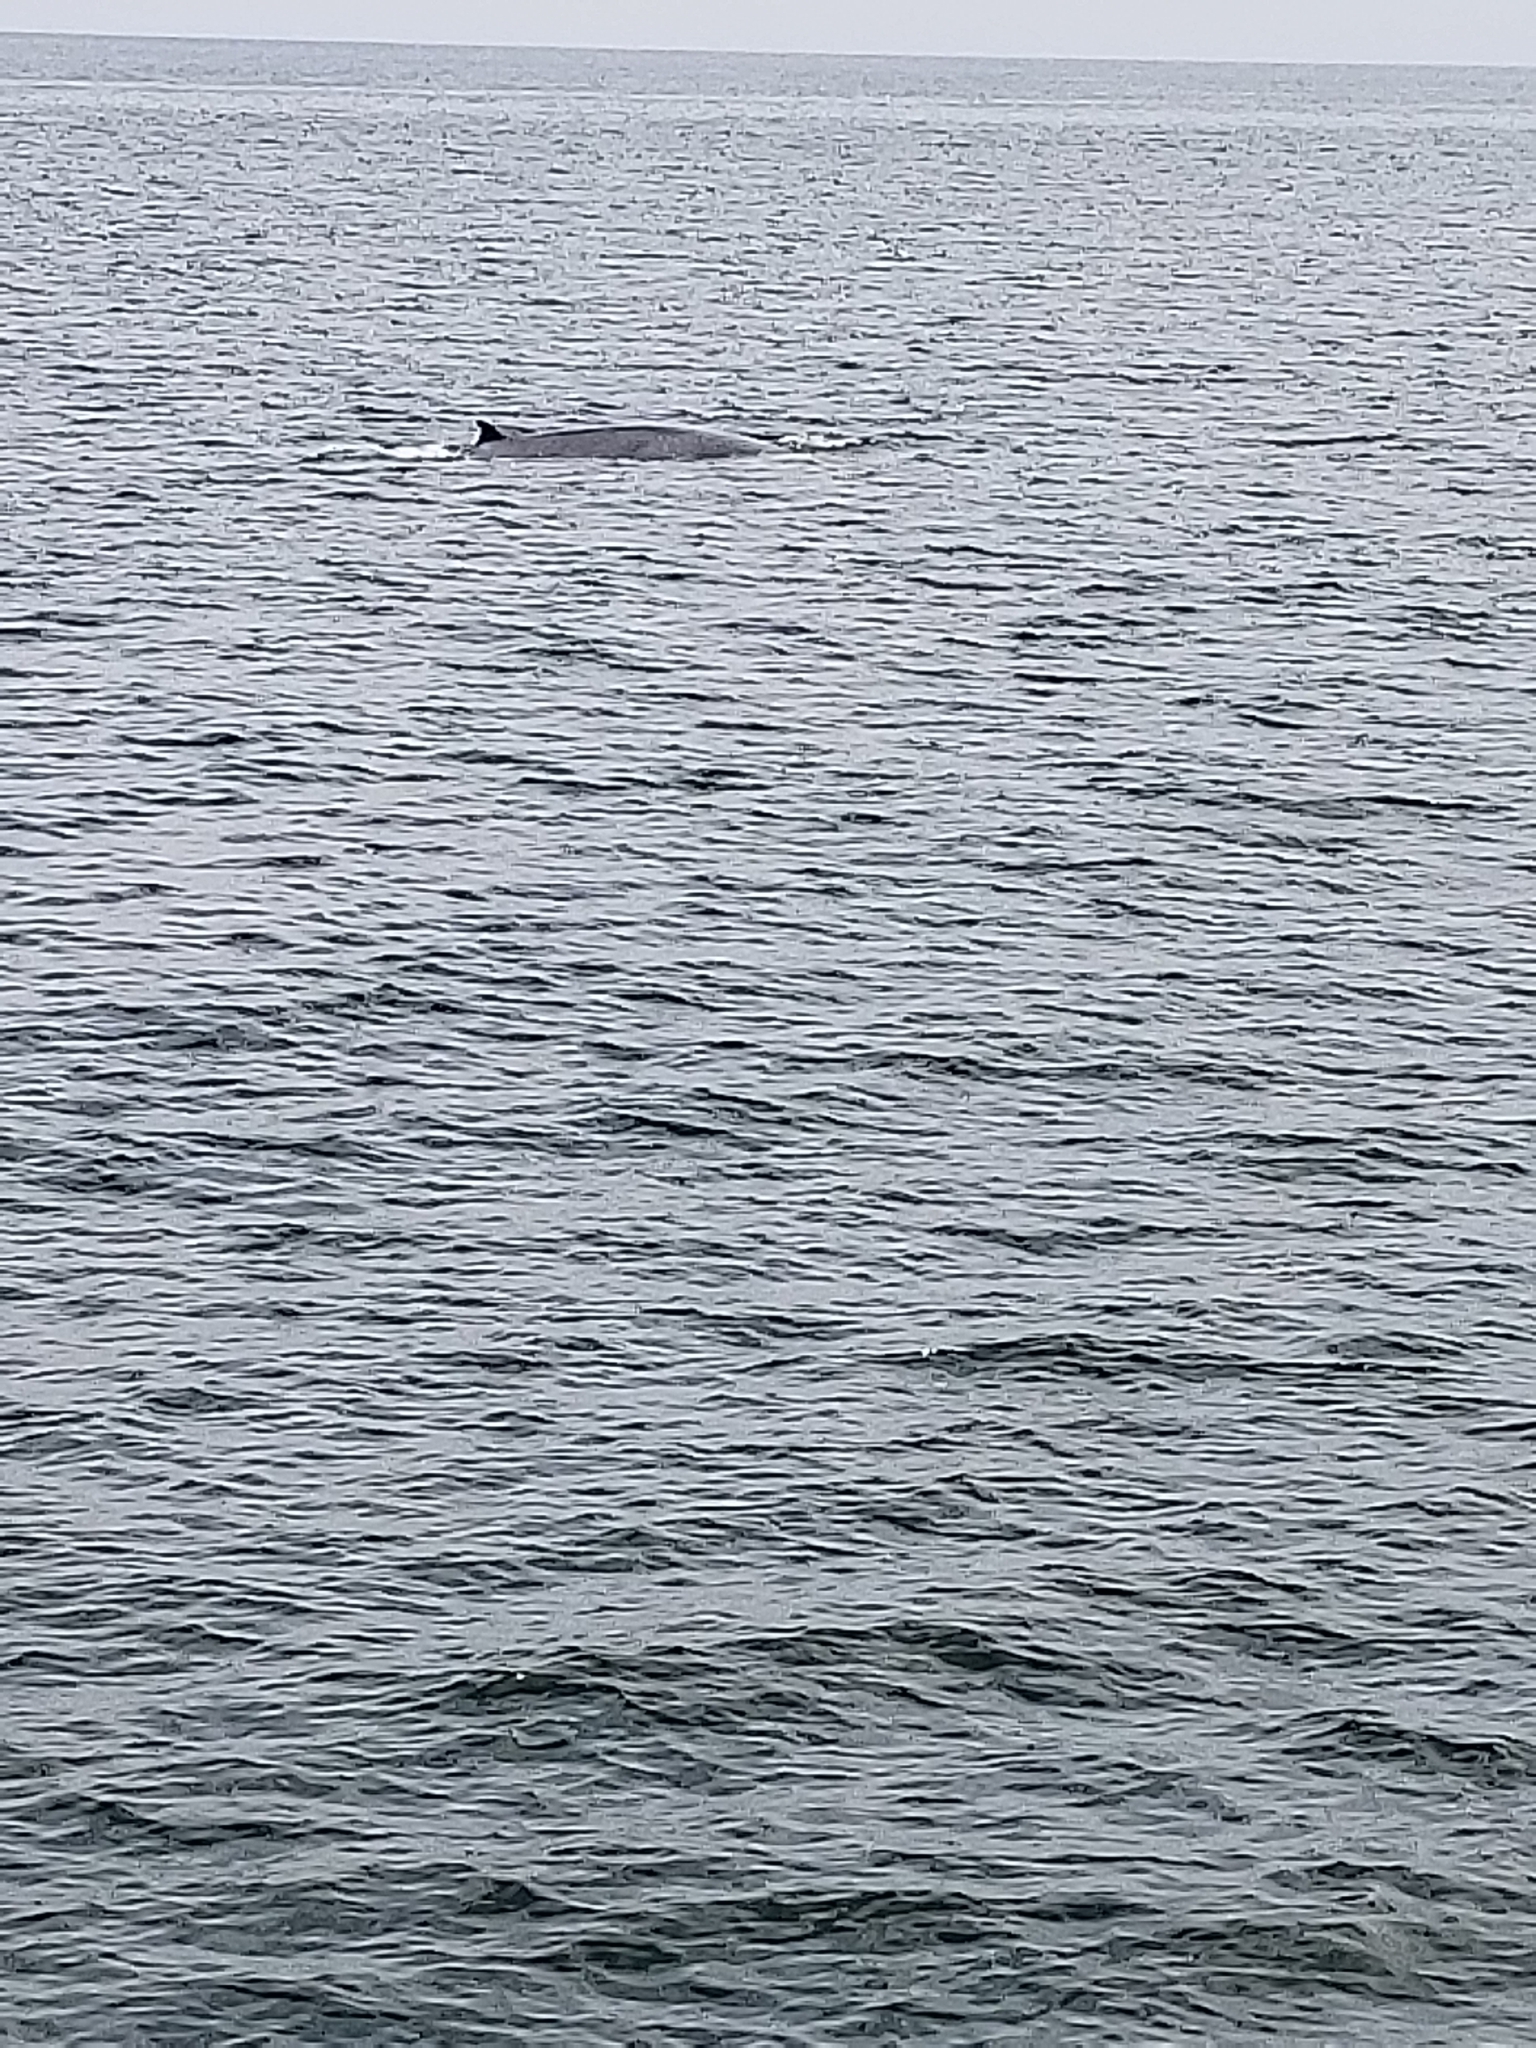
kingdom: Animalia
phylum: Chordata
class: Mammalia
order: Cetacea
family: Balaenopteridae
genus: Balaenoptera
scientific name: Balaenoptera
